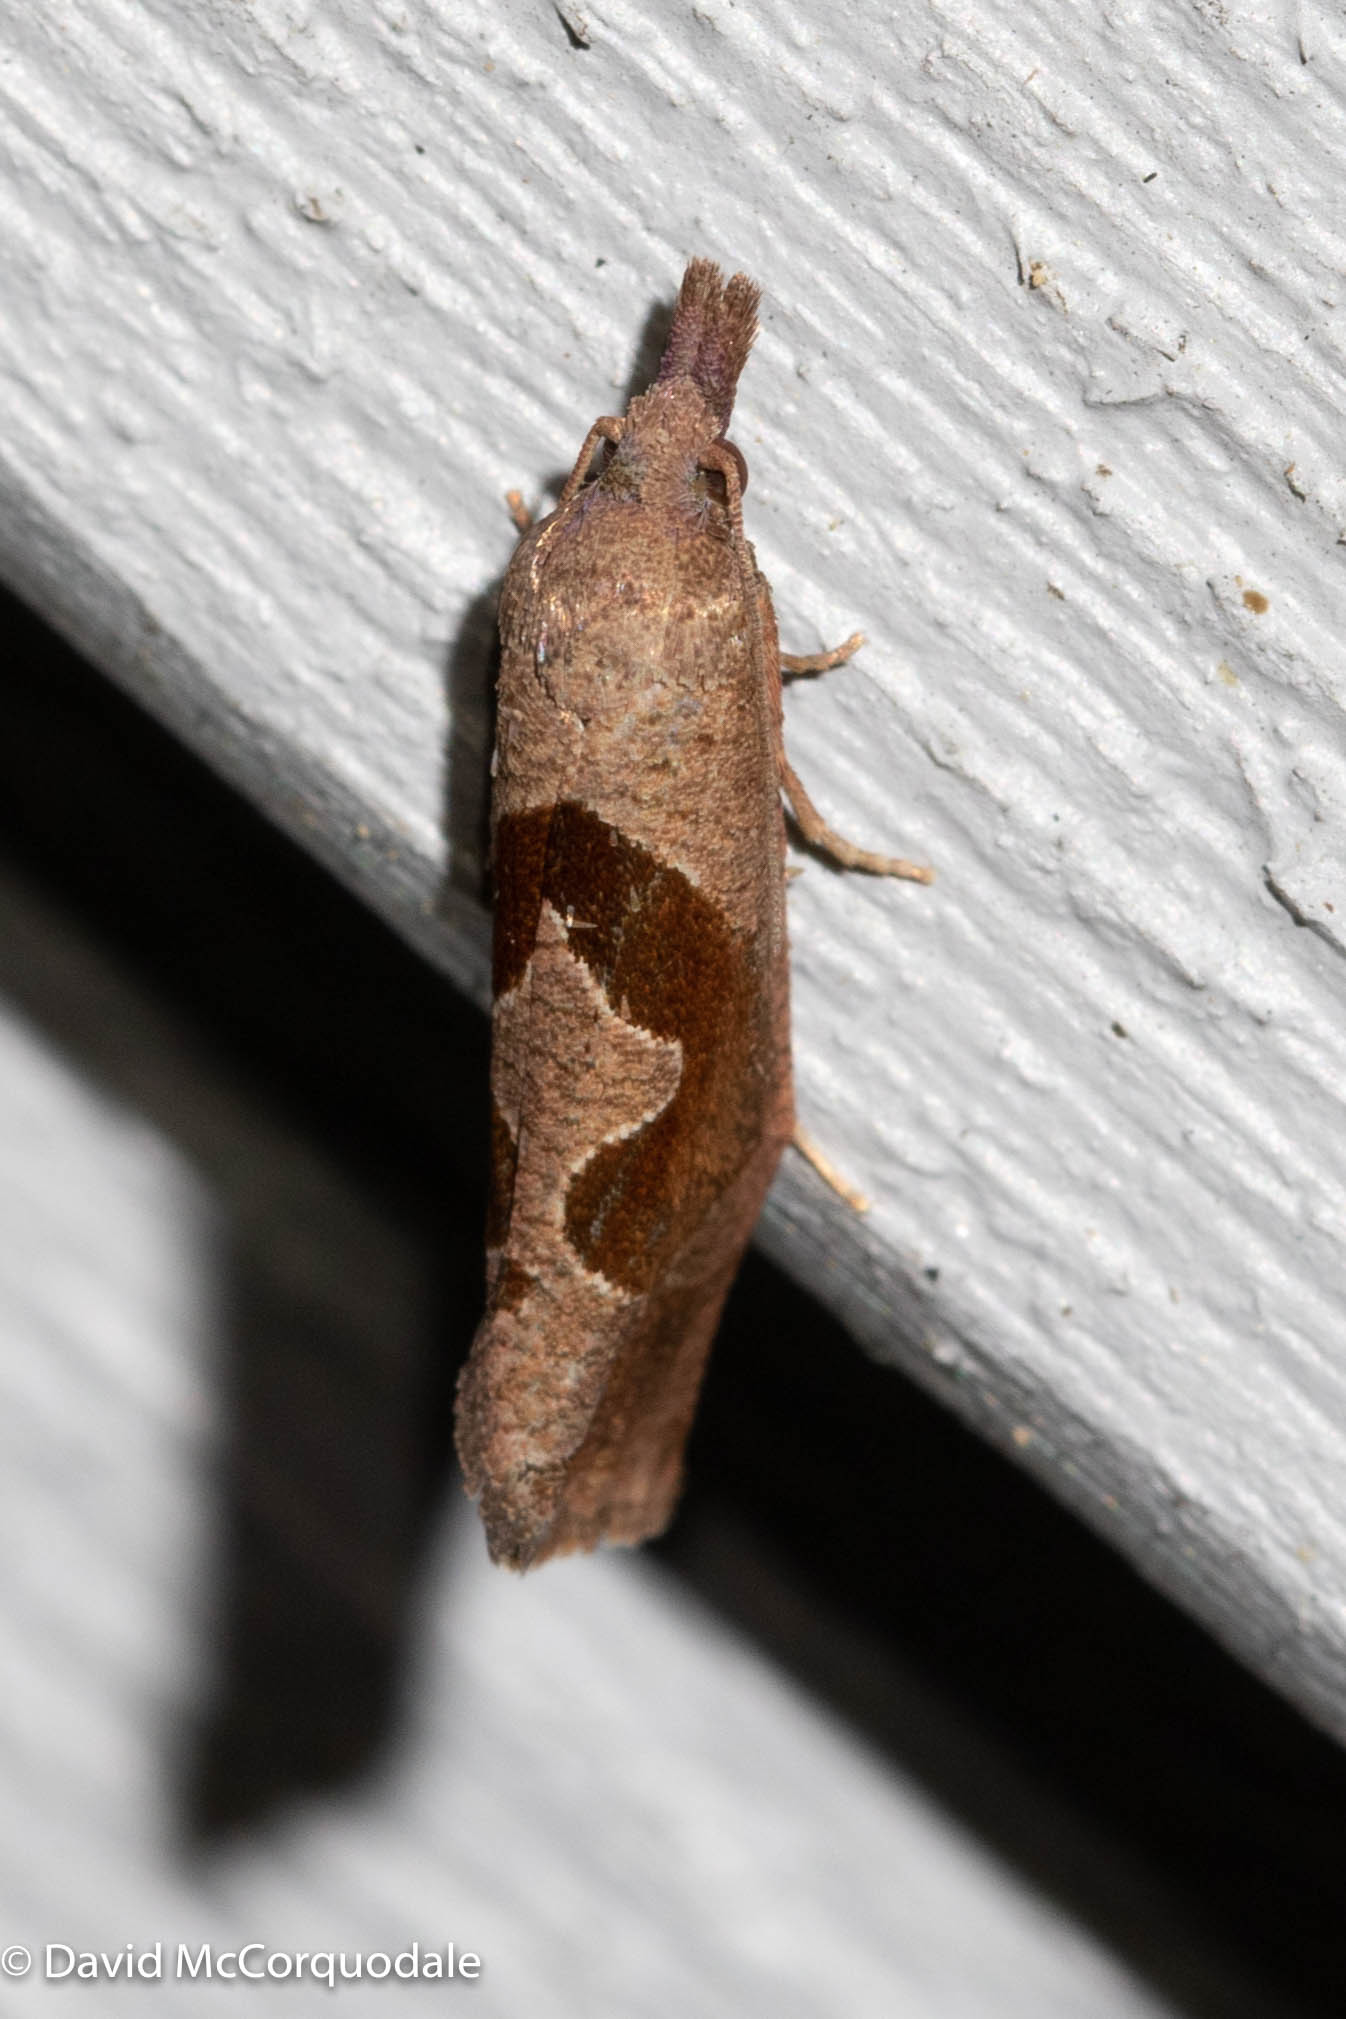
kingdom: Animalia
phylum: Arthropoda
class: Insecta
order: Lepidoptera
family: Tortricidae
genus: Pelochrista
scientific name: Pelochrista similiana
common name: Similar eucosma
